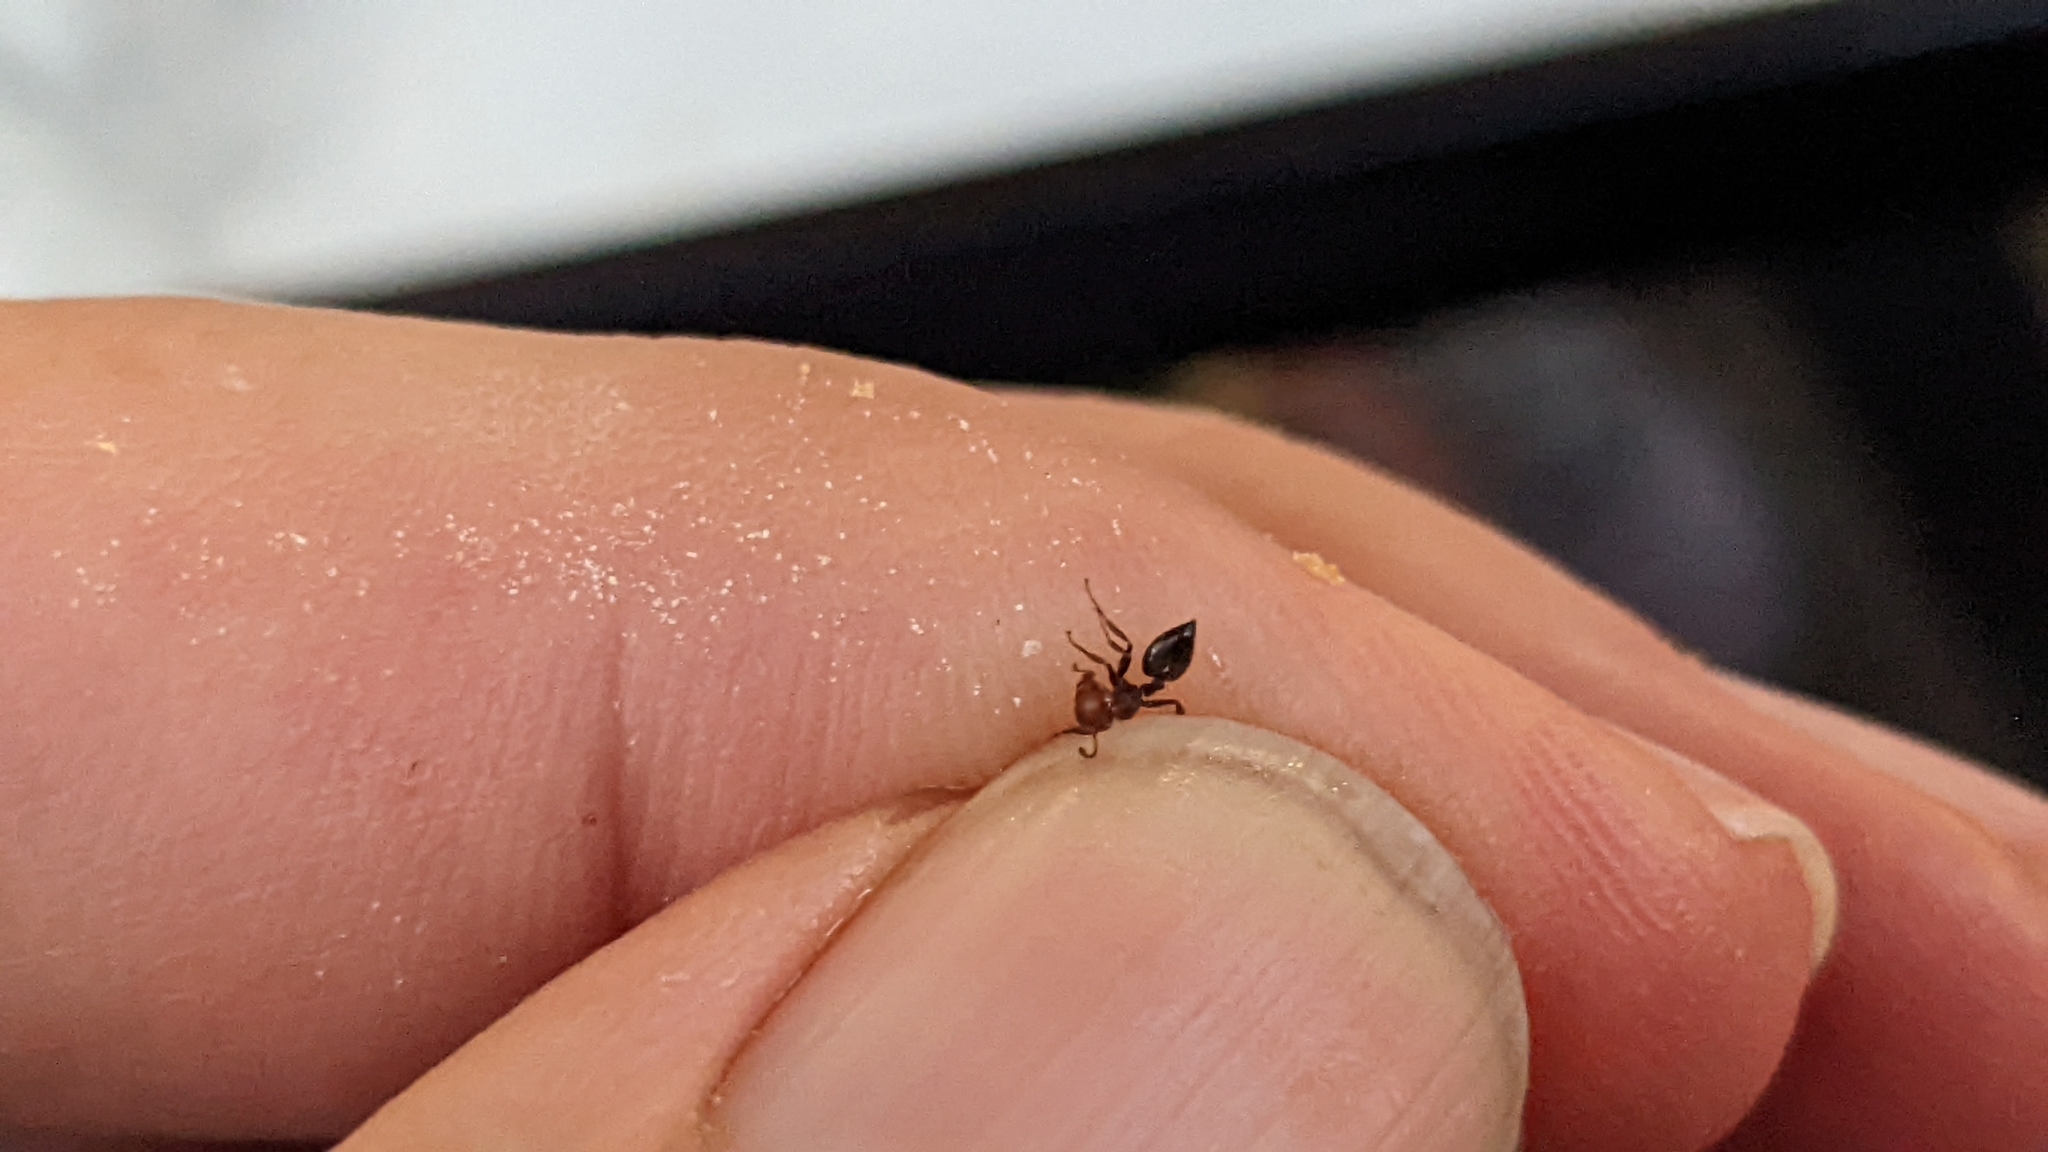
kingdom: Animalia
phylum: Arthropoda
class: Insecta
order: Hymenoptera
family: Formicidae
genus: Crematogaster
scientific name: Crematogaster scutellaris
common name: Fourmi du liège
